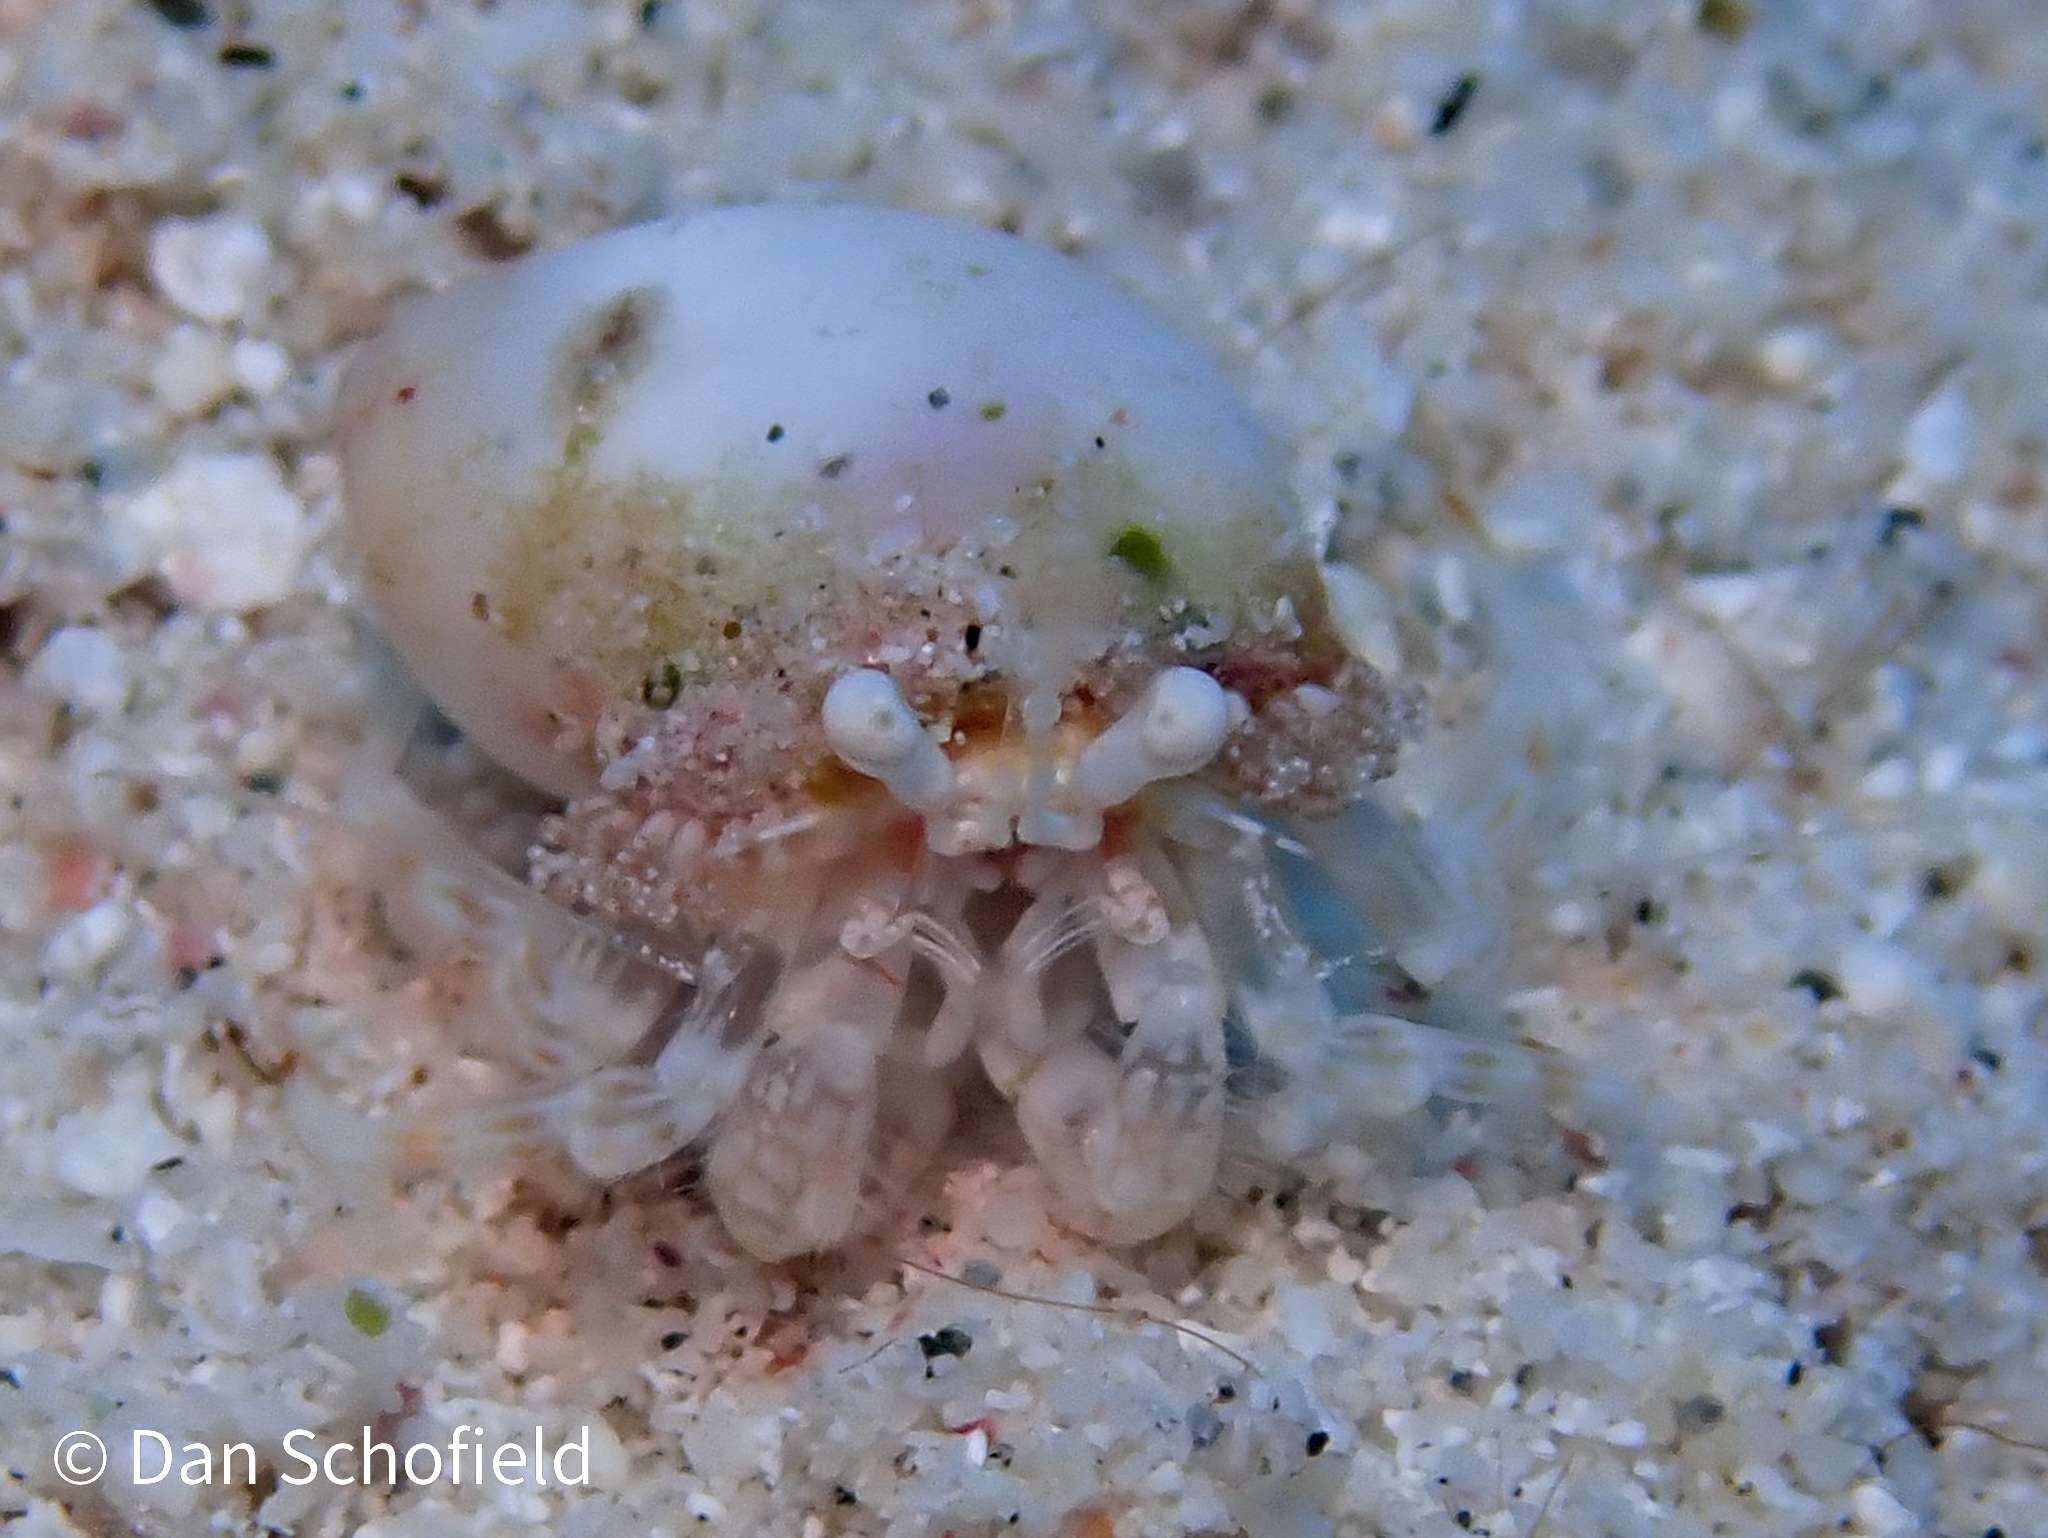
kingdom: Animalia
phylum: Arthropoda
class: Malacostraca
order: Decapoda
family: Paguridae
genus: Iridopagurus
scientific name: Iridopagurus reticulatus
